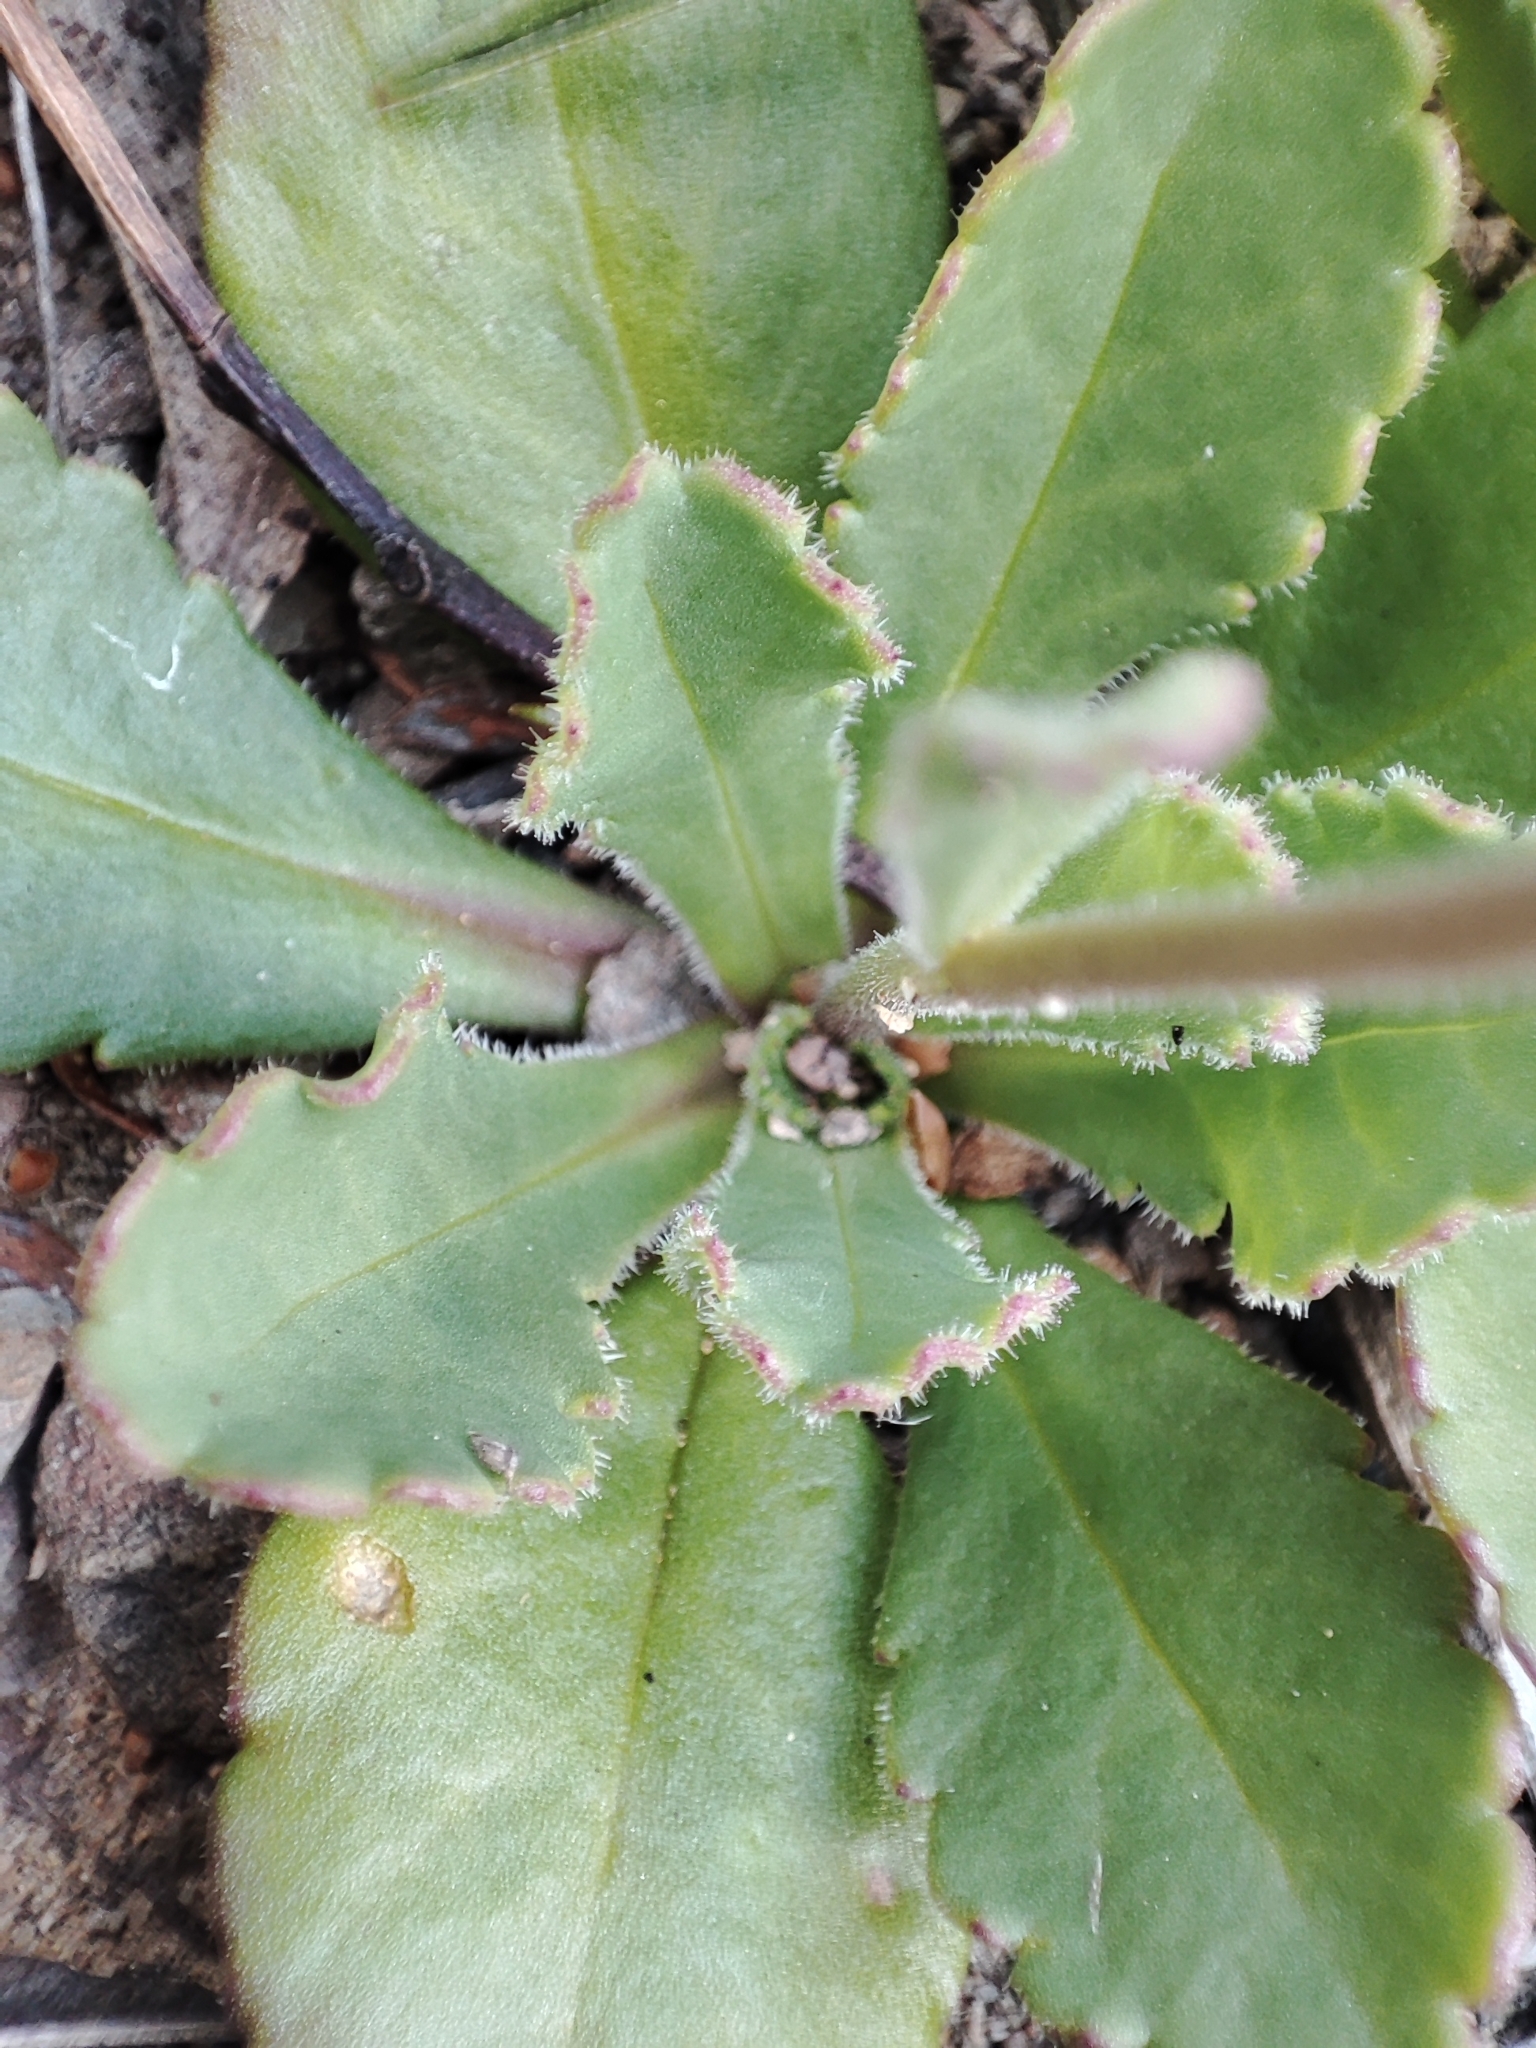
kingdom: Plantae
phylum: Tracheophyta
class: Magnoliopsida
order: Asterales
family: Asteraceae
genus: Brachyscome
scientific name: Brachyscome spathulata
